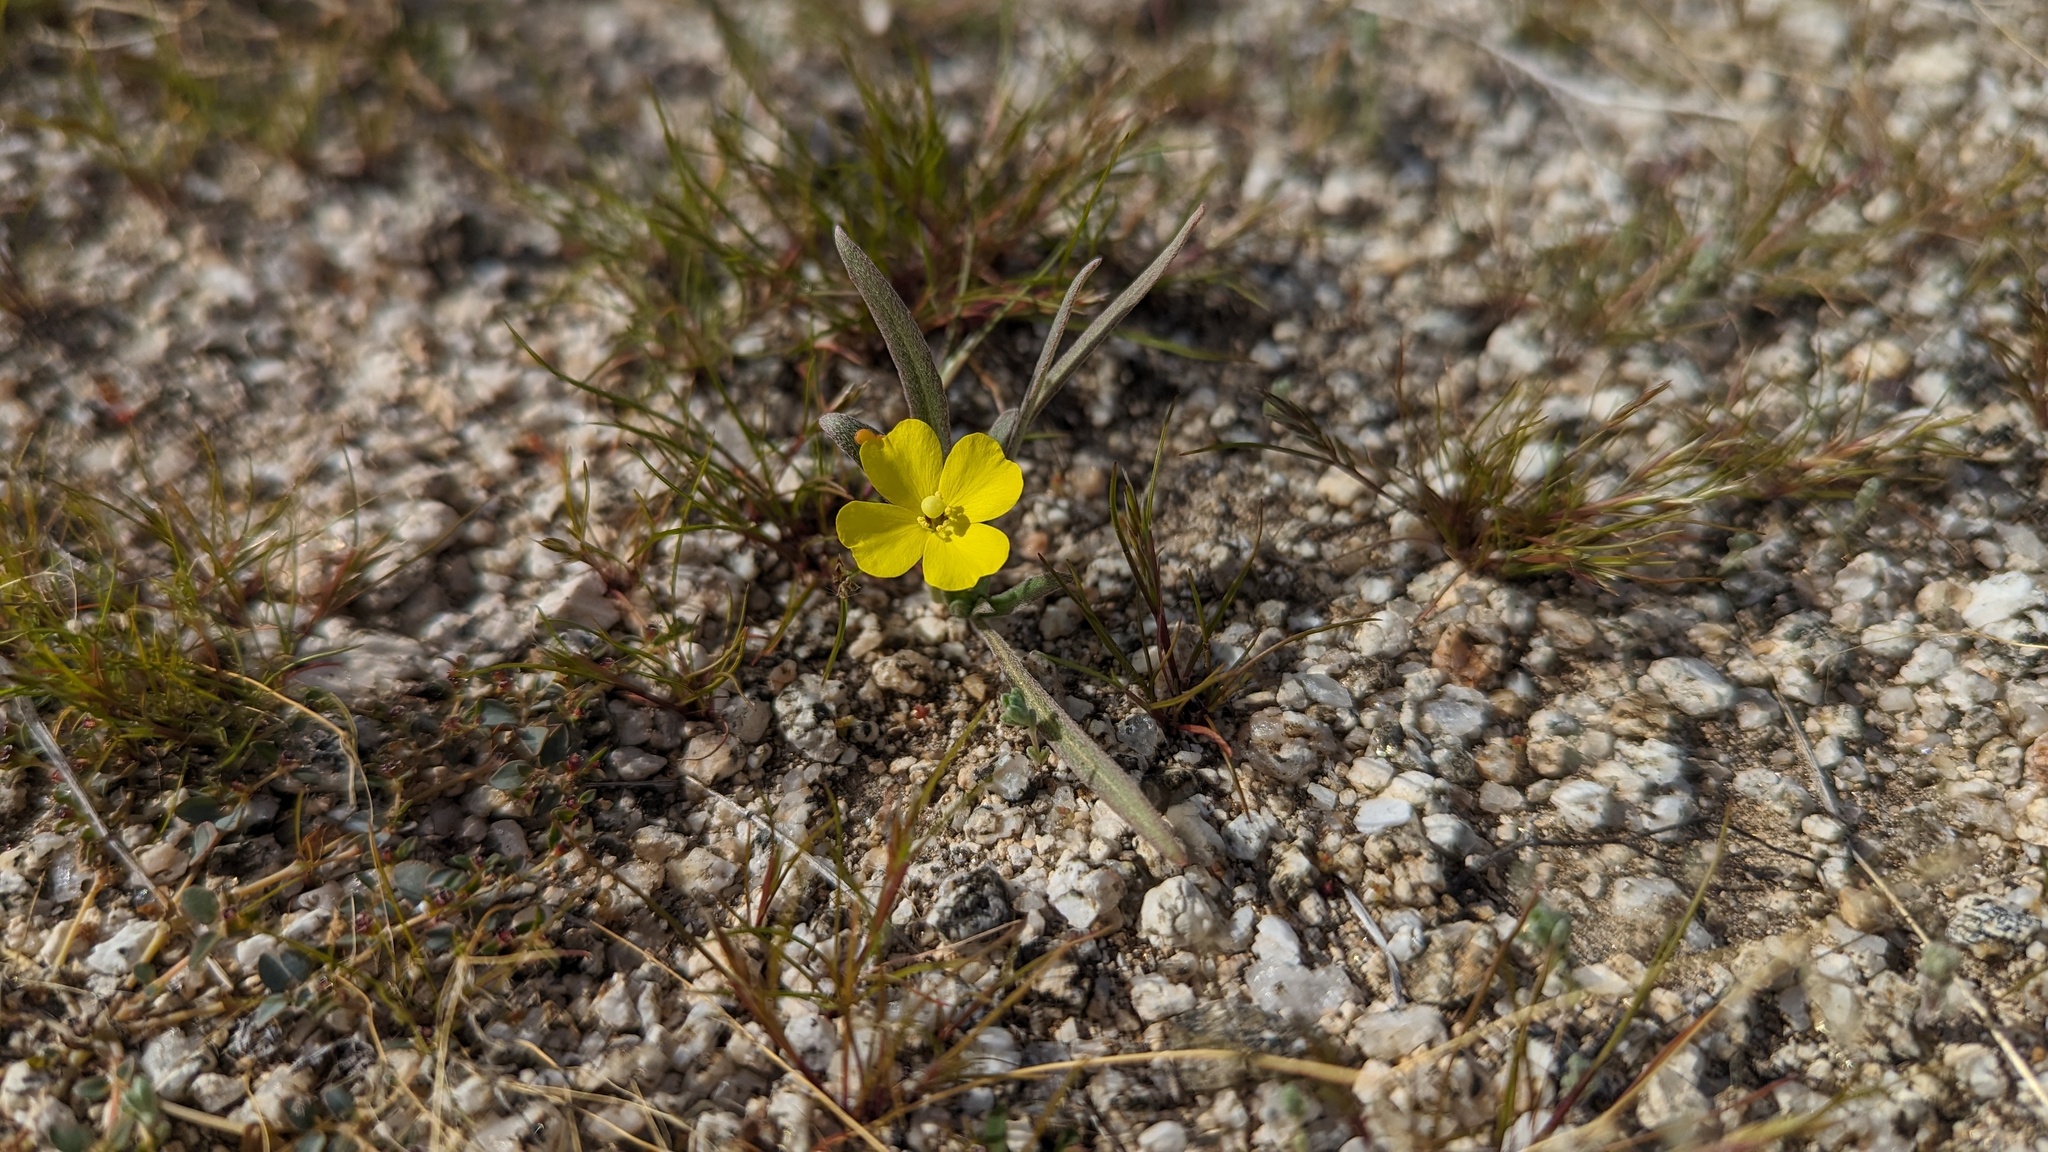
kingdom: Plantae
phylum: Tracheophyta
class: Magnoliopsida
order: Myrtales
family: Onagraceae
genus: Camissoniopsis
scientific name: Camissoniopsis pallida
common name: Paleyellow suncup
